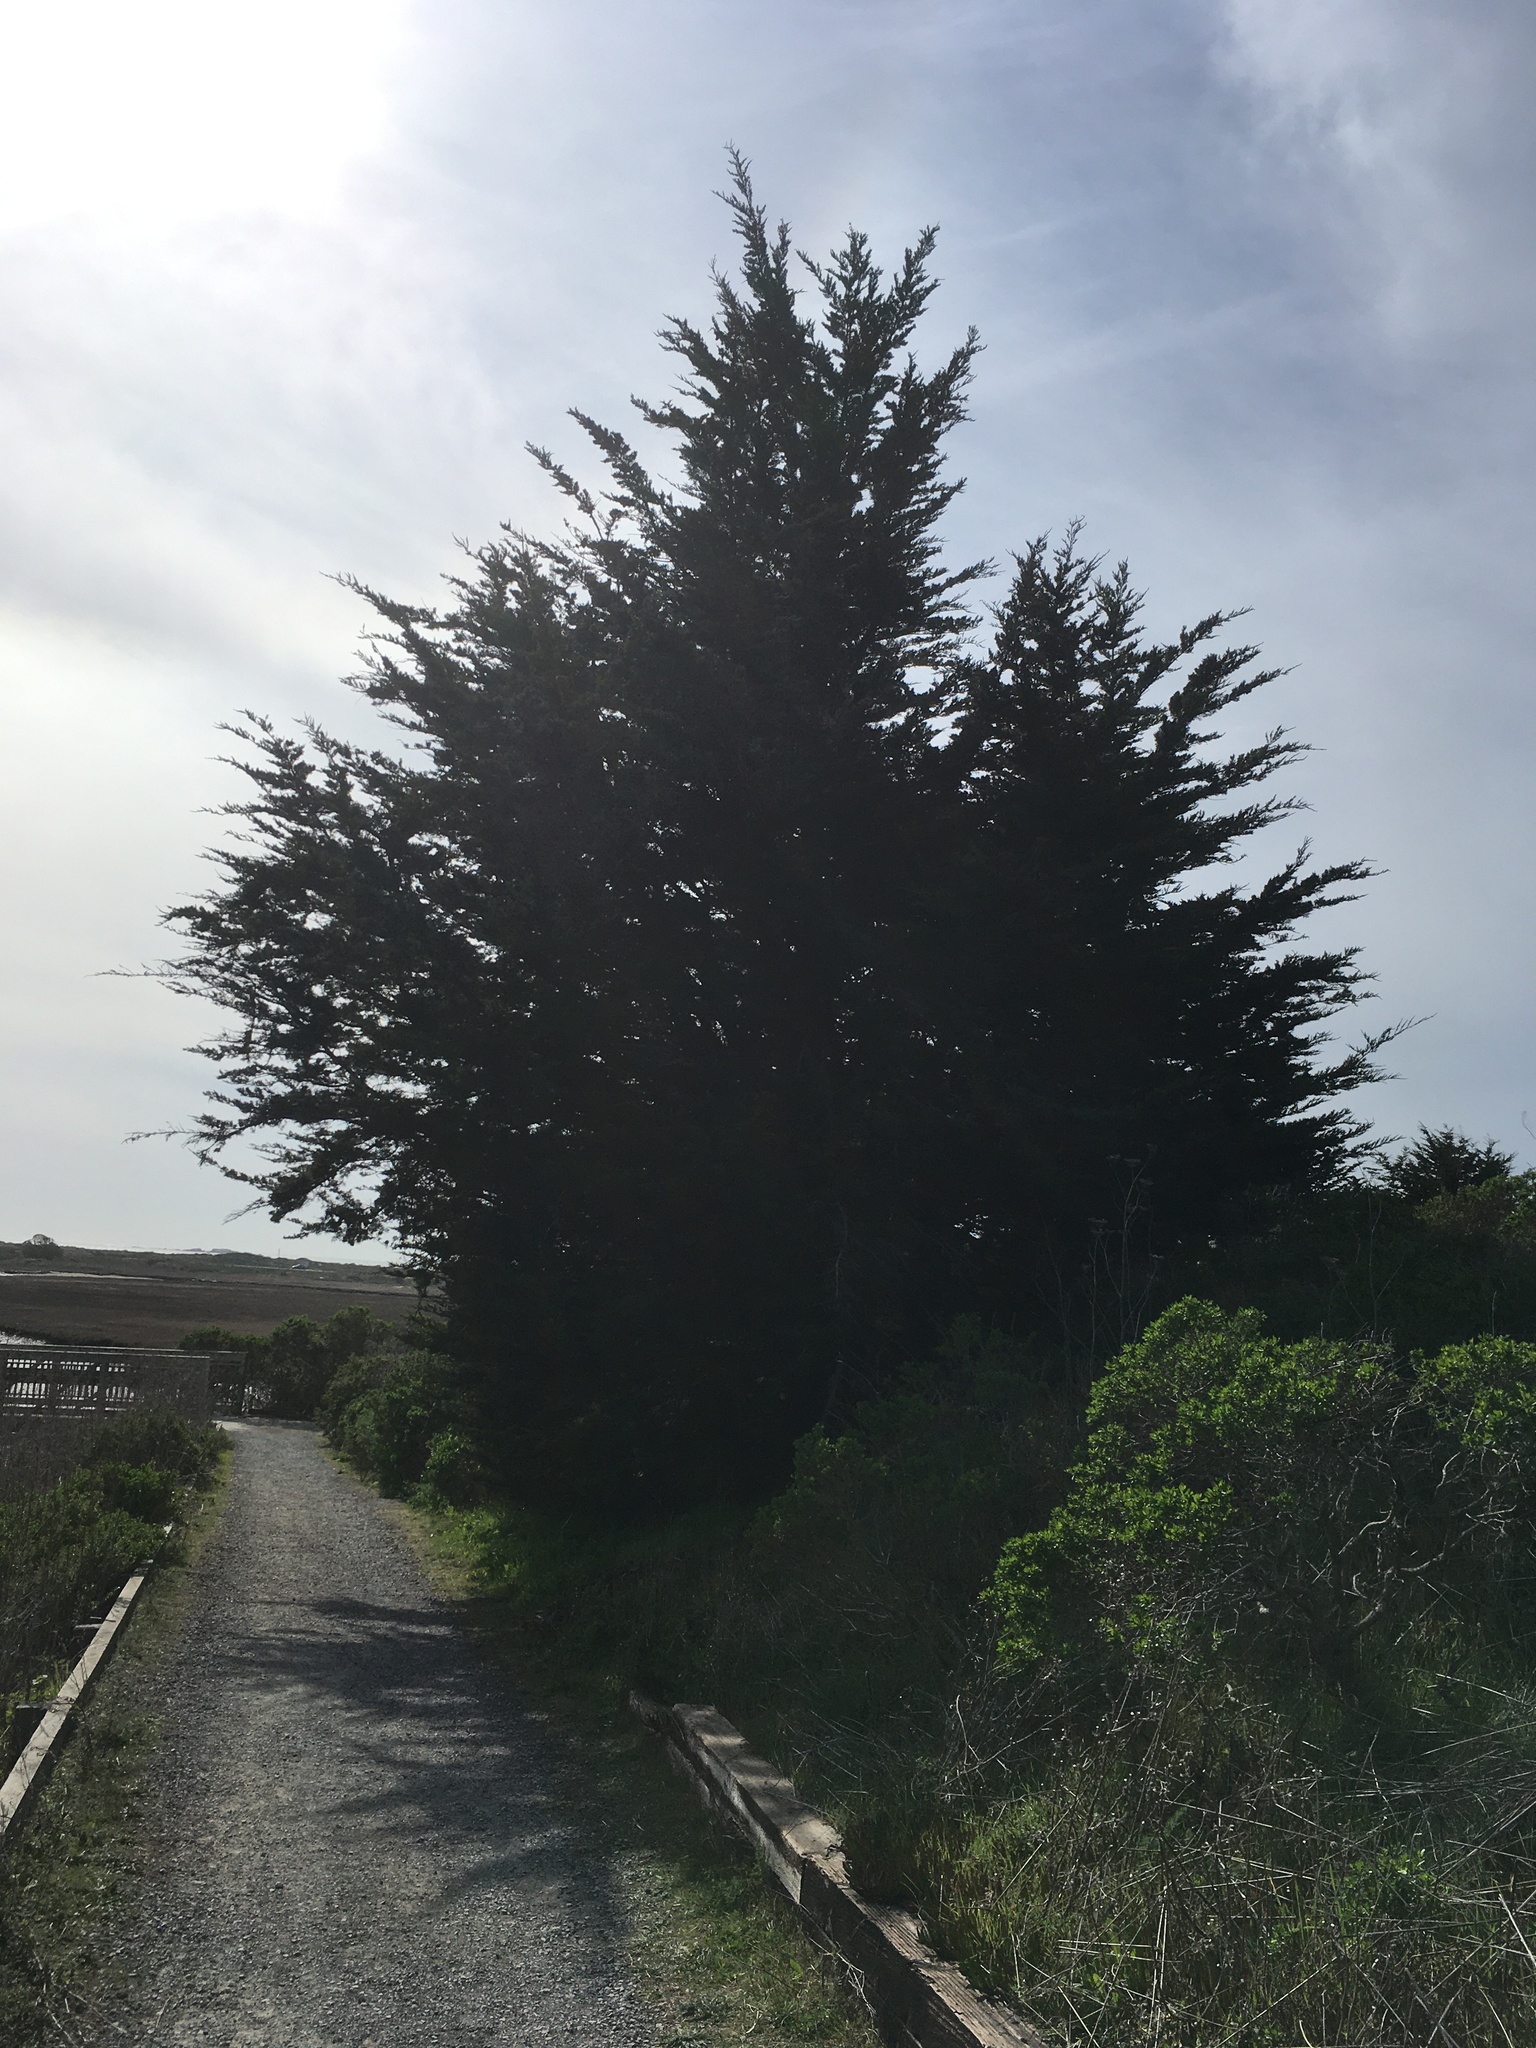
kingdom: Plantae
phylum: Tracheophyta
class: Pinopsida
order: Pinales
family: Cupressaceae
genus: Cupressus
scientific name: Cupressus macrocarpa
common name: Monterey cypress
